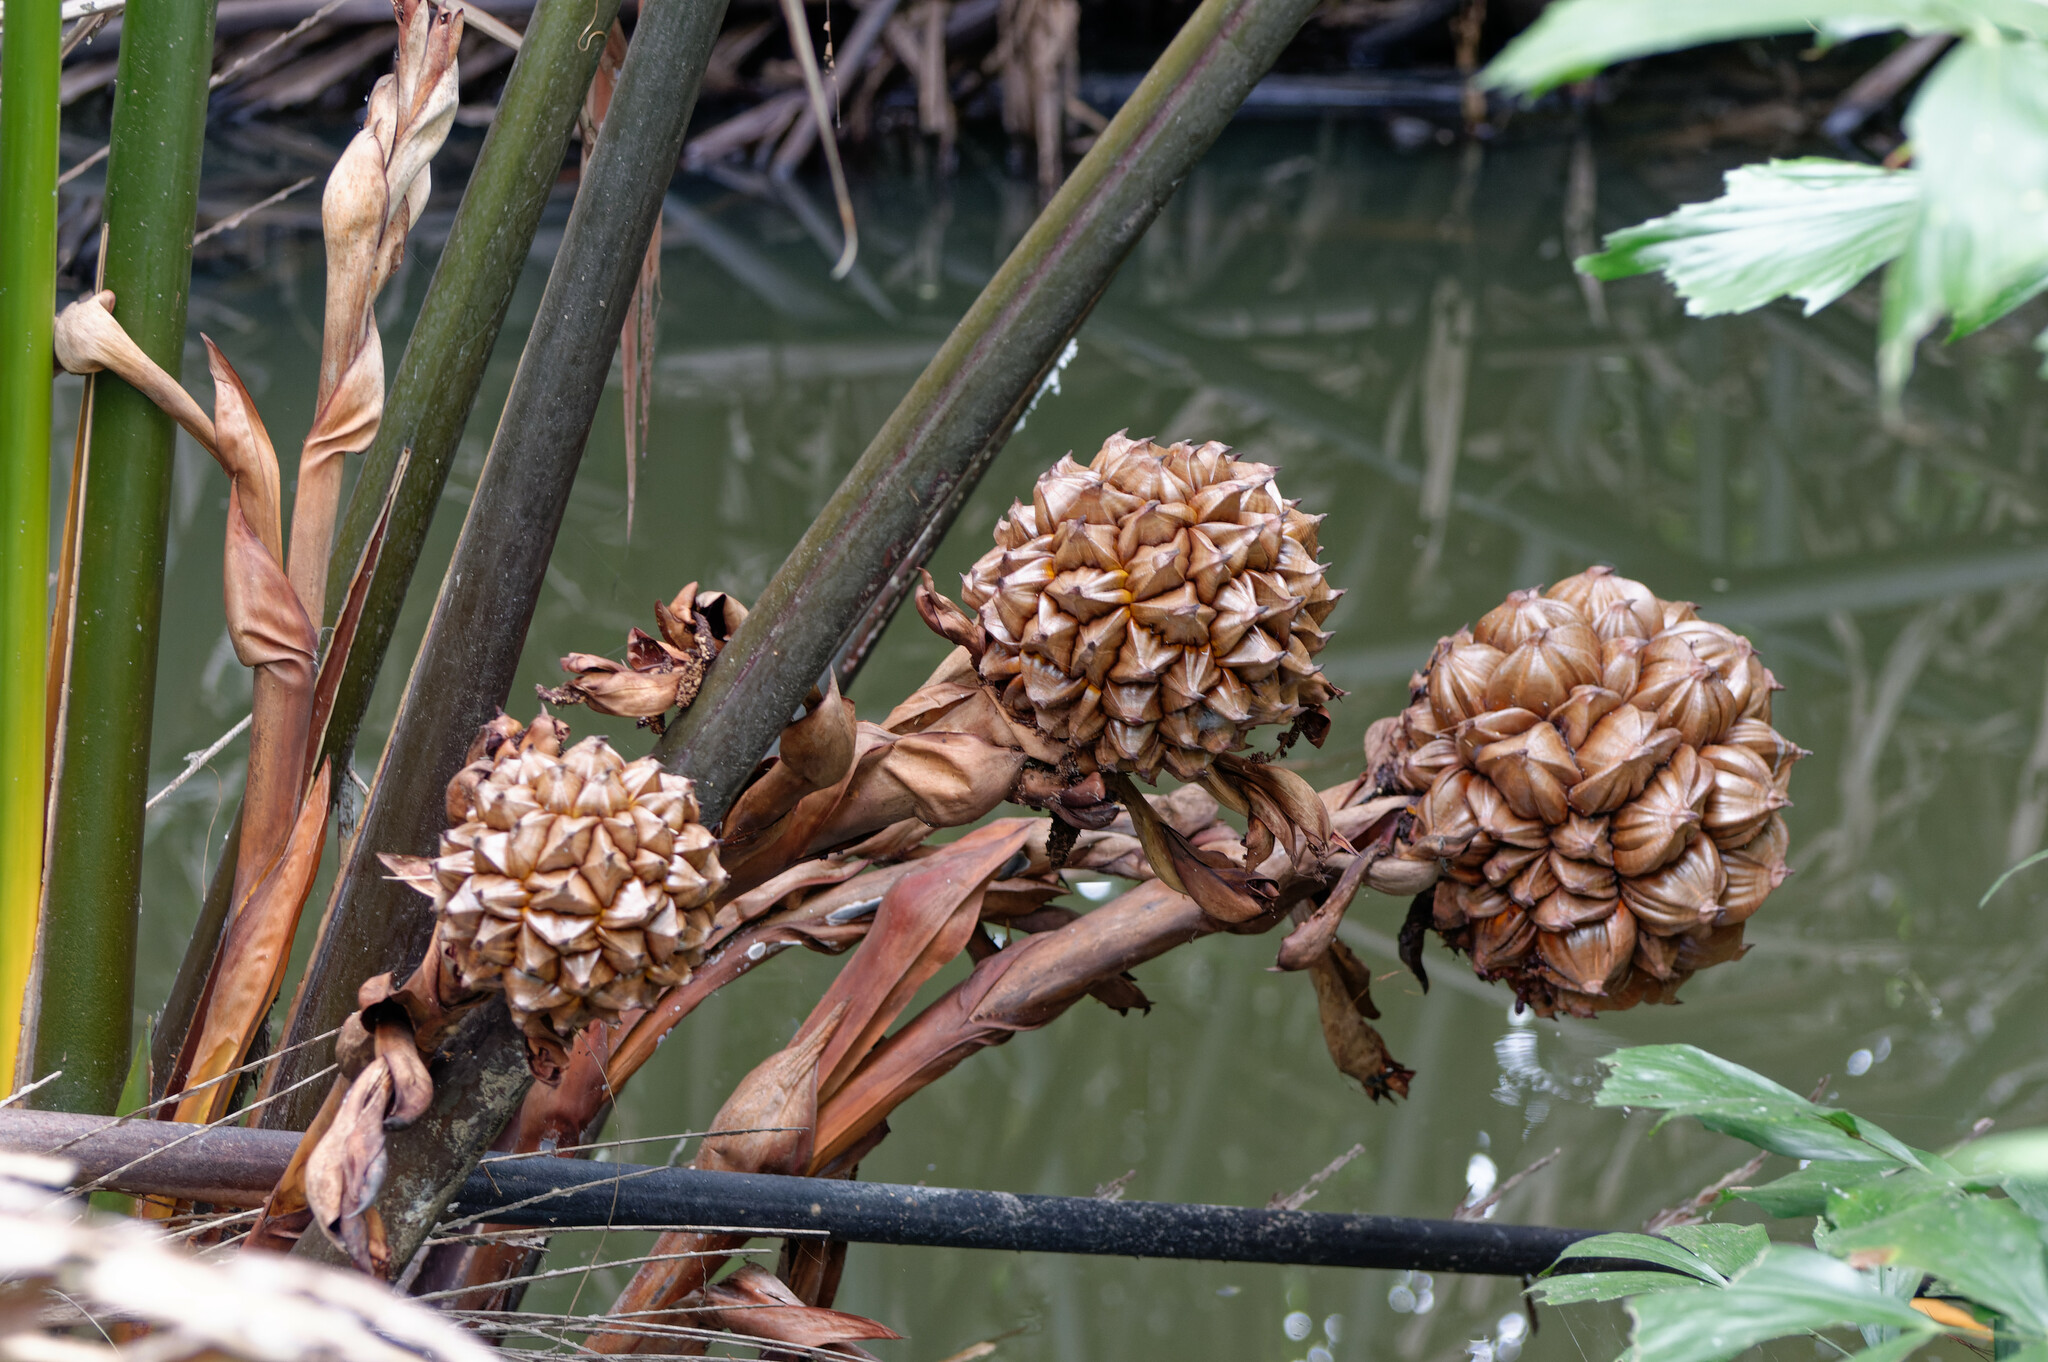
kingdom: Plantae
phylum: Tracheophyta
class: Liliopsida
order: Arecales
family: Arecaceae
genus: Nypa
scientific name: Nypa fruticans
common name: Mangrove palm
